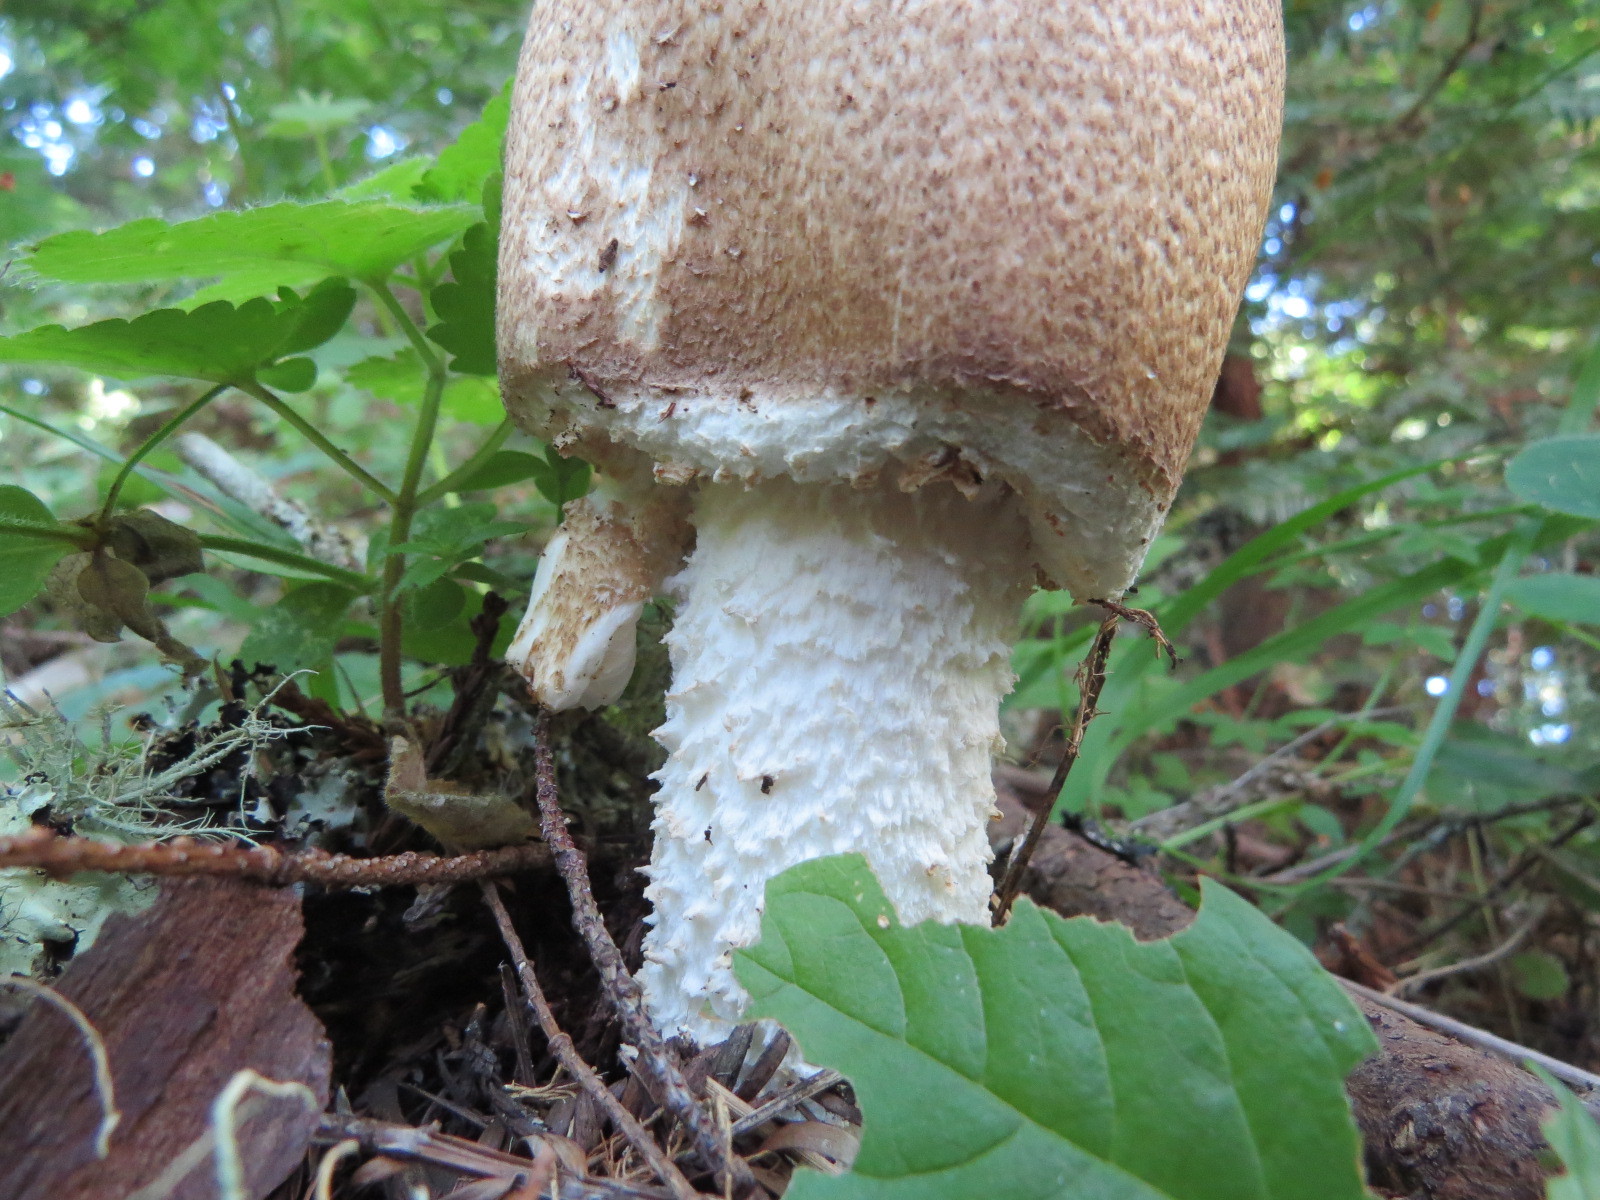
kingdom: Fungi
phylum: Basidiomycota
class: Agaricomycetes
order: Agaricales
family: Agaricaceae
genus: Agaricus
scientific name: Agaricus augustus
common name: Prince
